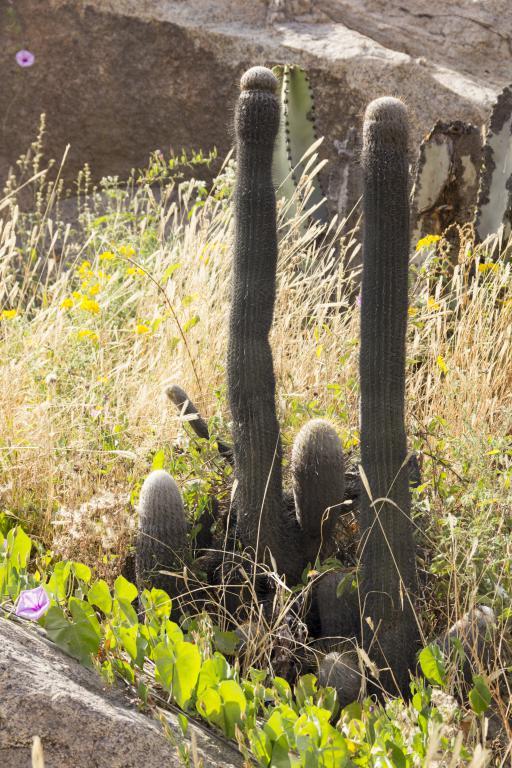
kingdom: Plantae
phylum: Tracheophyta
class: Magnoliopsida
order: Caryophyllales
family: Cactaceae
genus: Espostoa
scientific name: Espostoa melanostele
